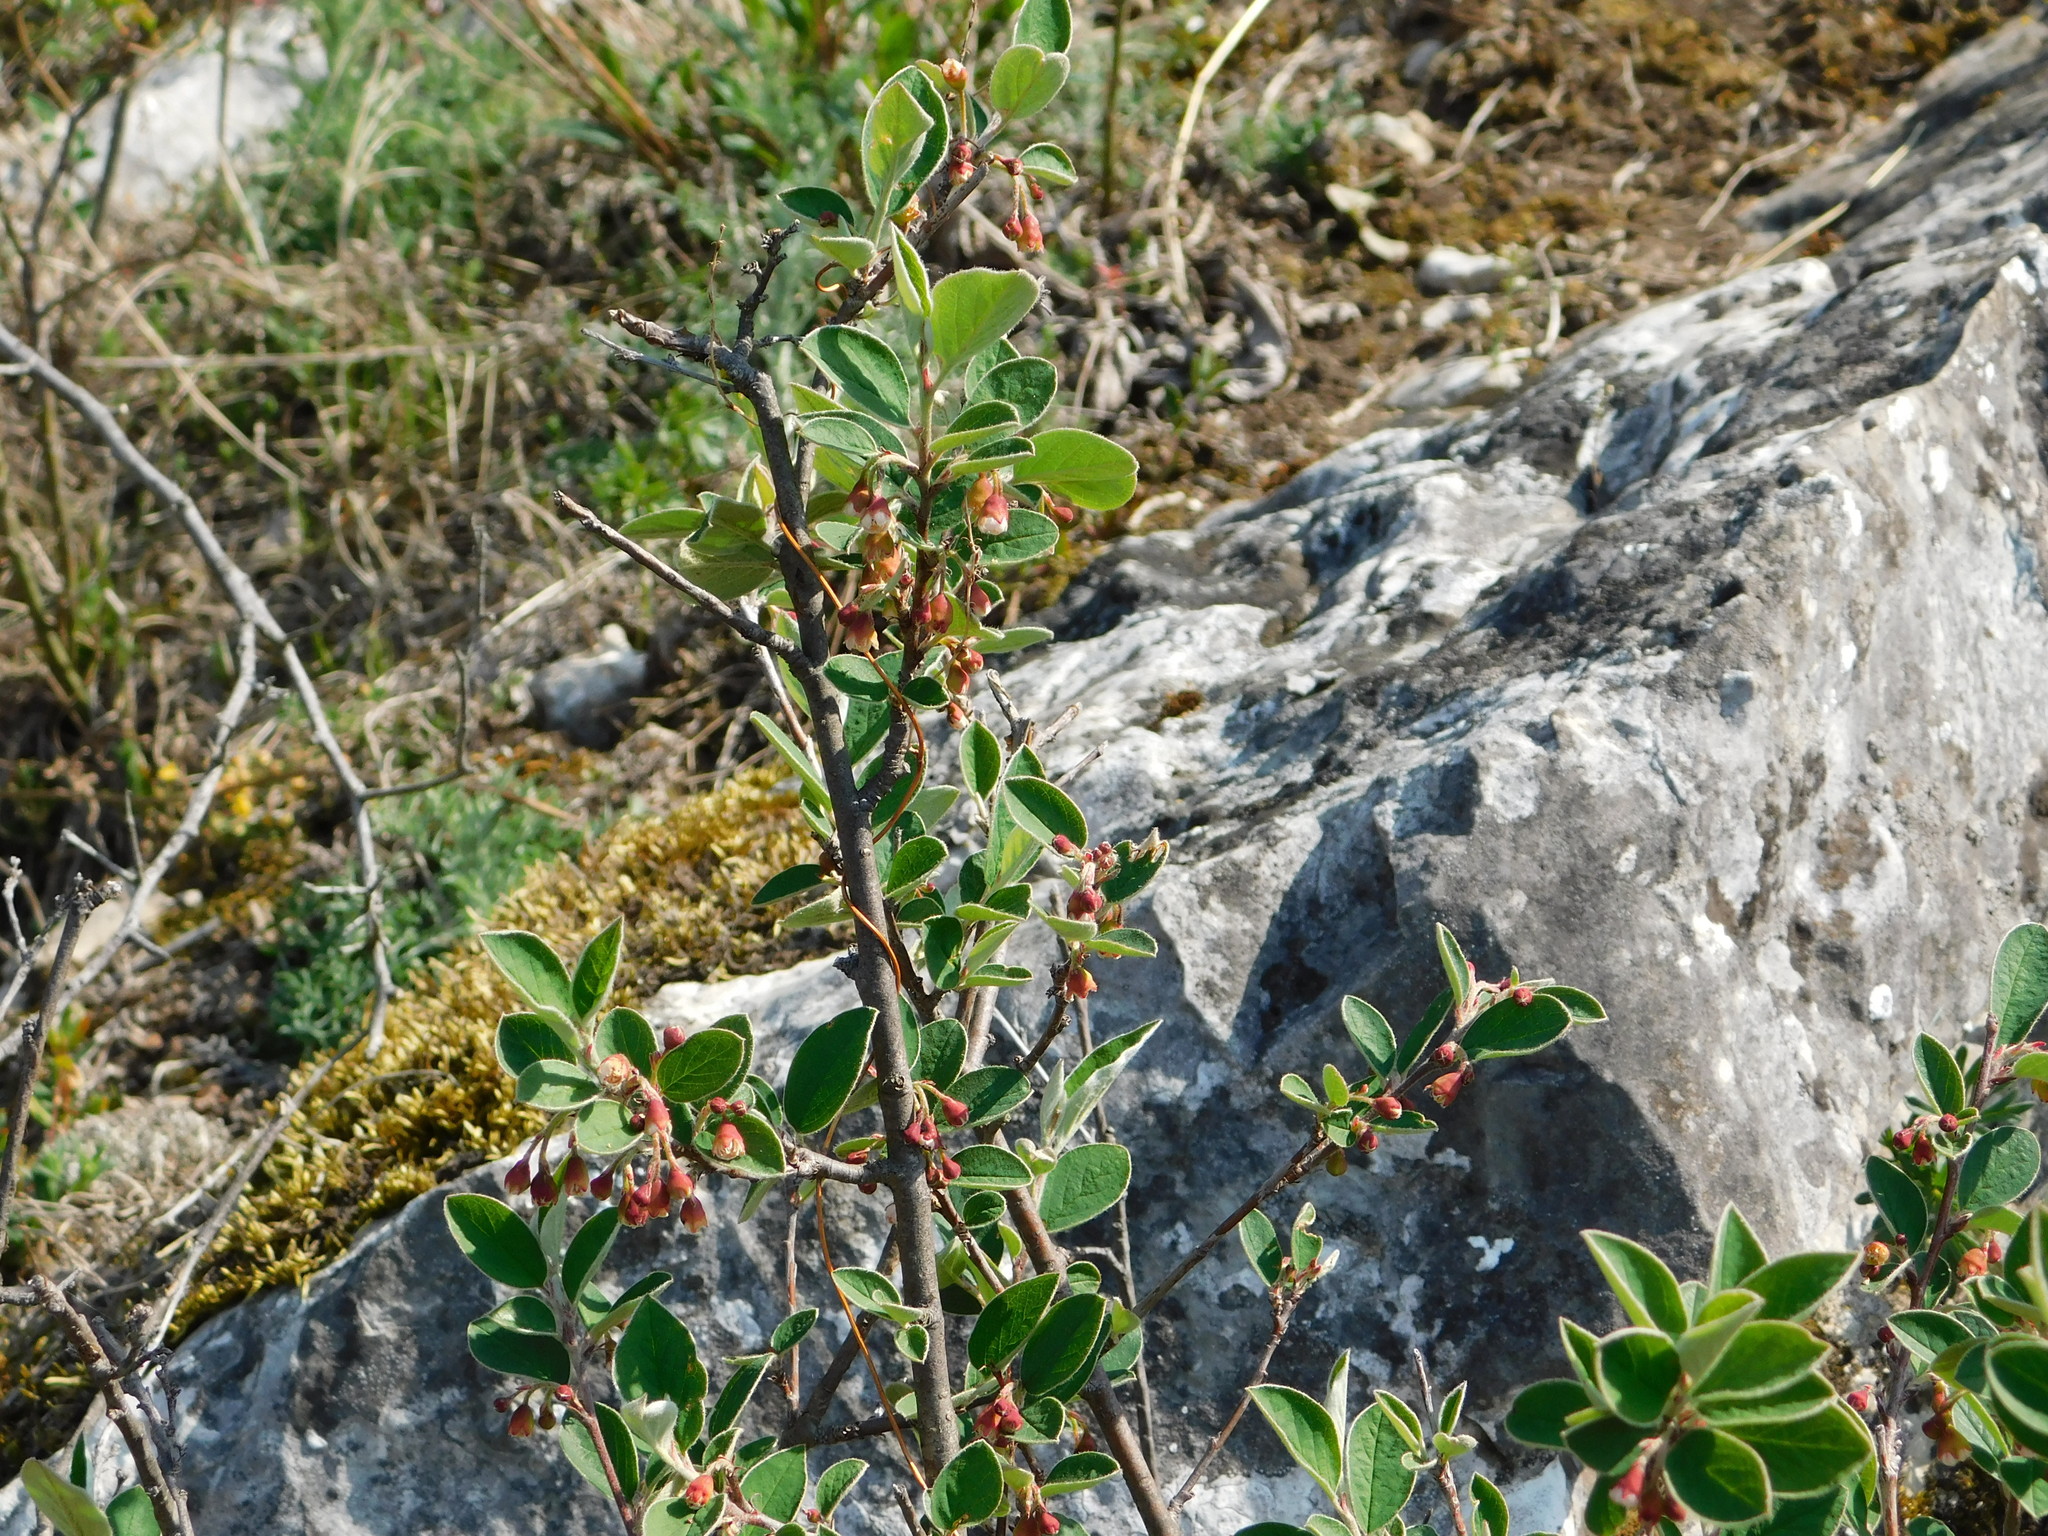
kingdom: Plantae
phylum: Tracheophyta
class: Magnoliopsida
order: Rosales
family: Rosaceae
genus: Cotoneaster
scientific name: Cotoneaster integerrimus
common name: Wild cotoneaster
